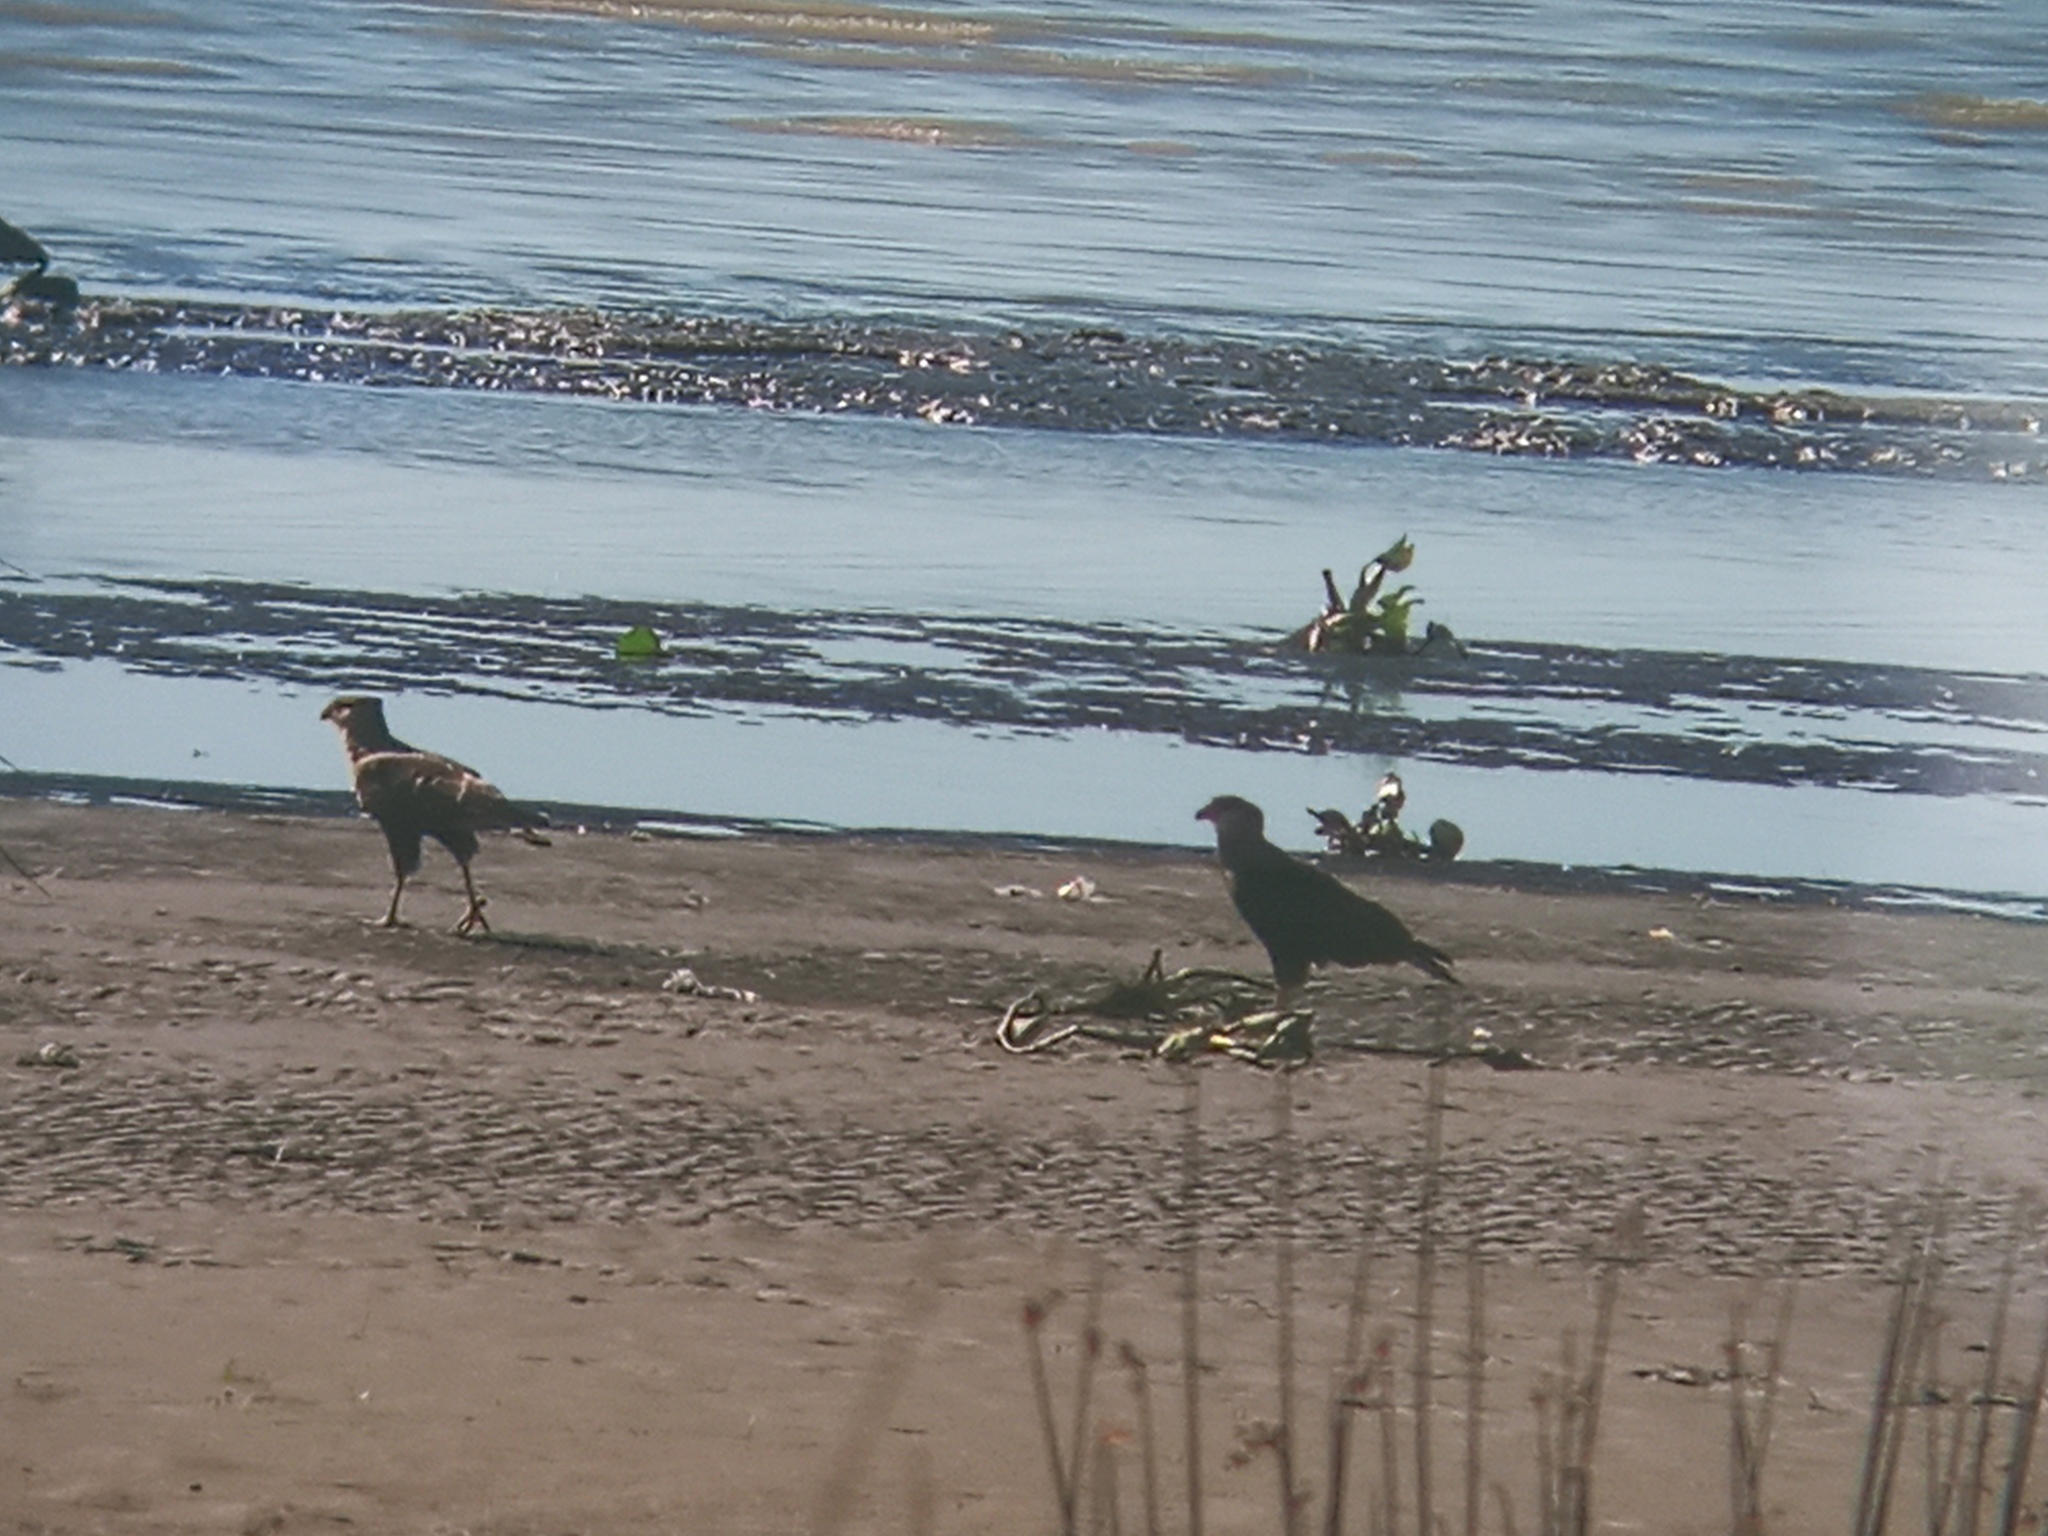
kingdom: Animalia
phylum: Chordata
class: Aves
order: Falconiformes
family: Falconidae
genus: Caracara
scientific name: Caracara plancus
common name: Southern caracara
